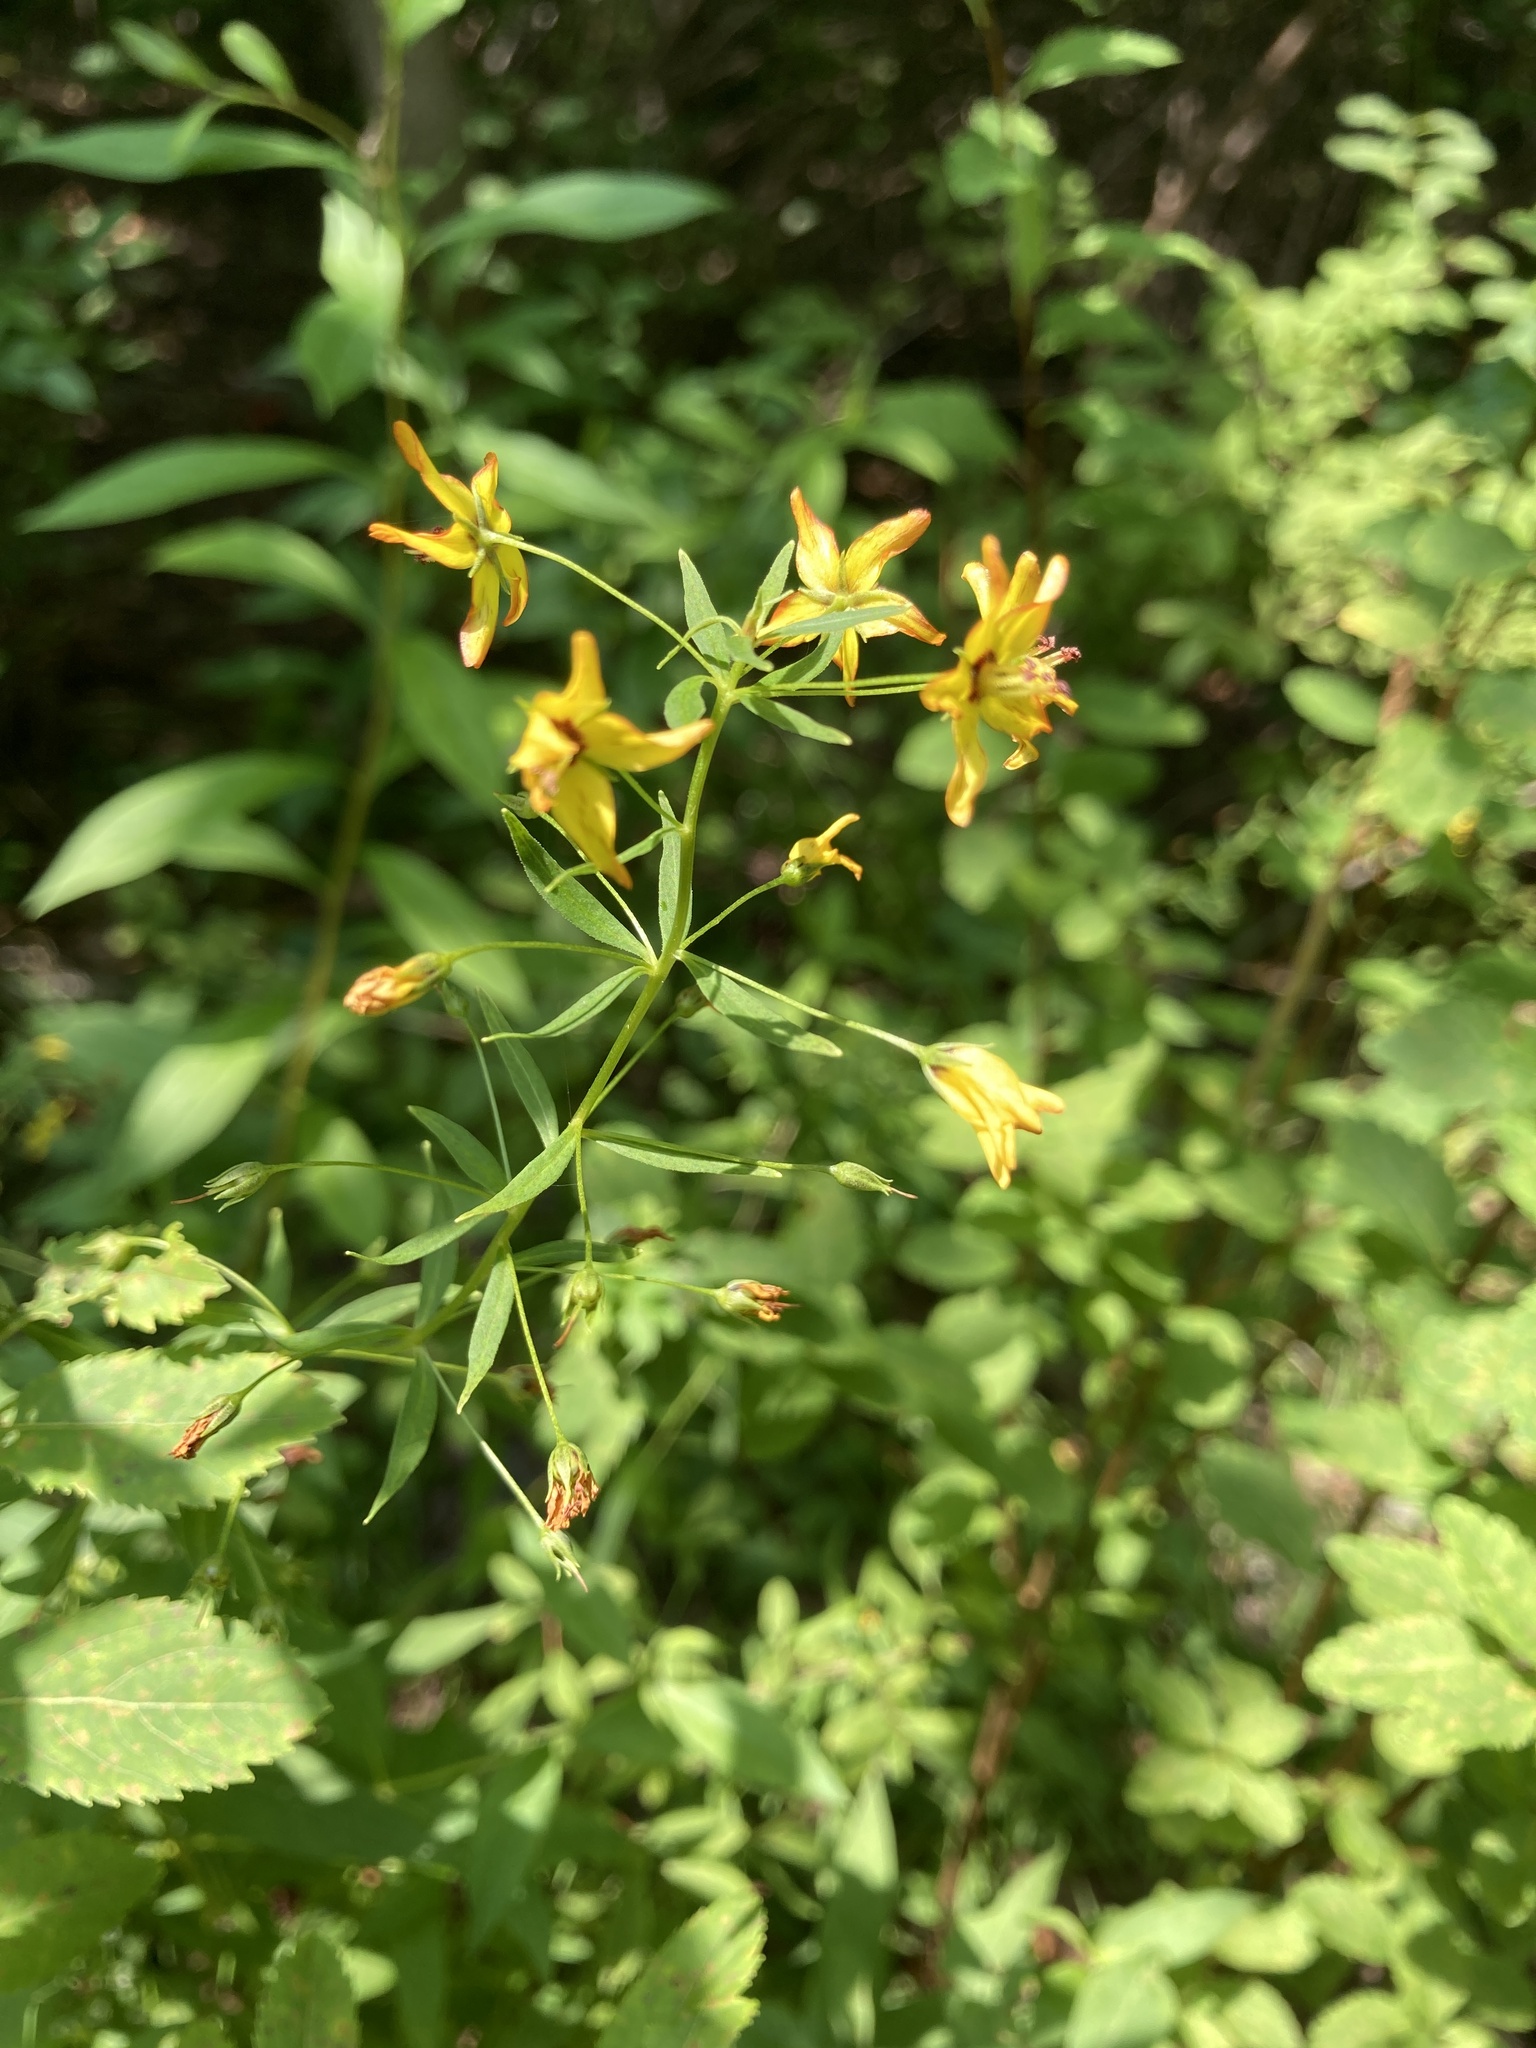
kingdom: Plantae
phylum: Tracheophyta
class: Magnoliopsida
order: Ericales
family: Primulaceae
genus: Lysimachia
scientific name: Lysimachia terrestris
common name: Lake loosestrife
